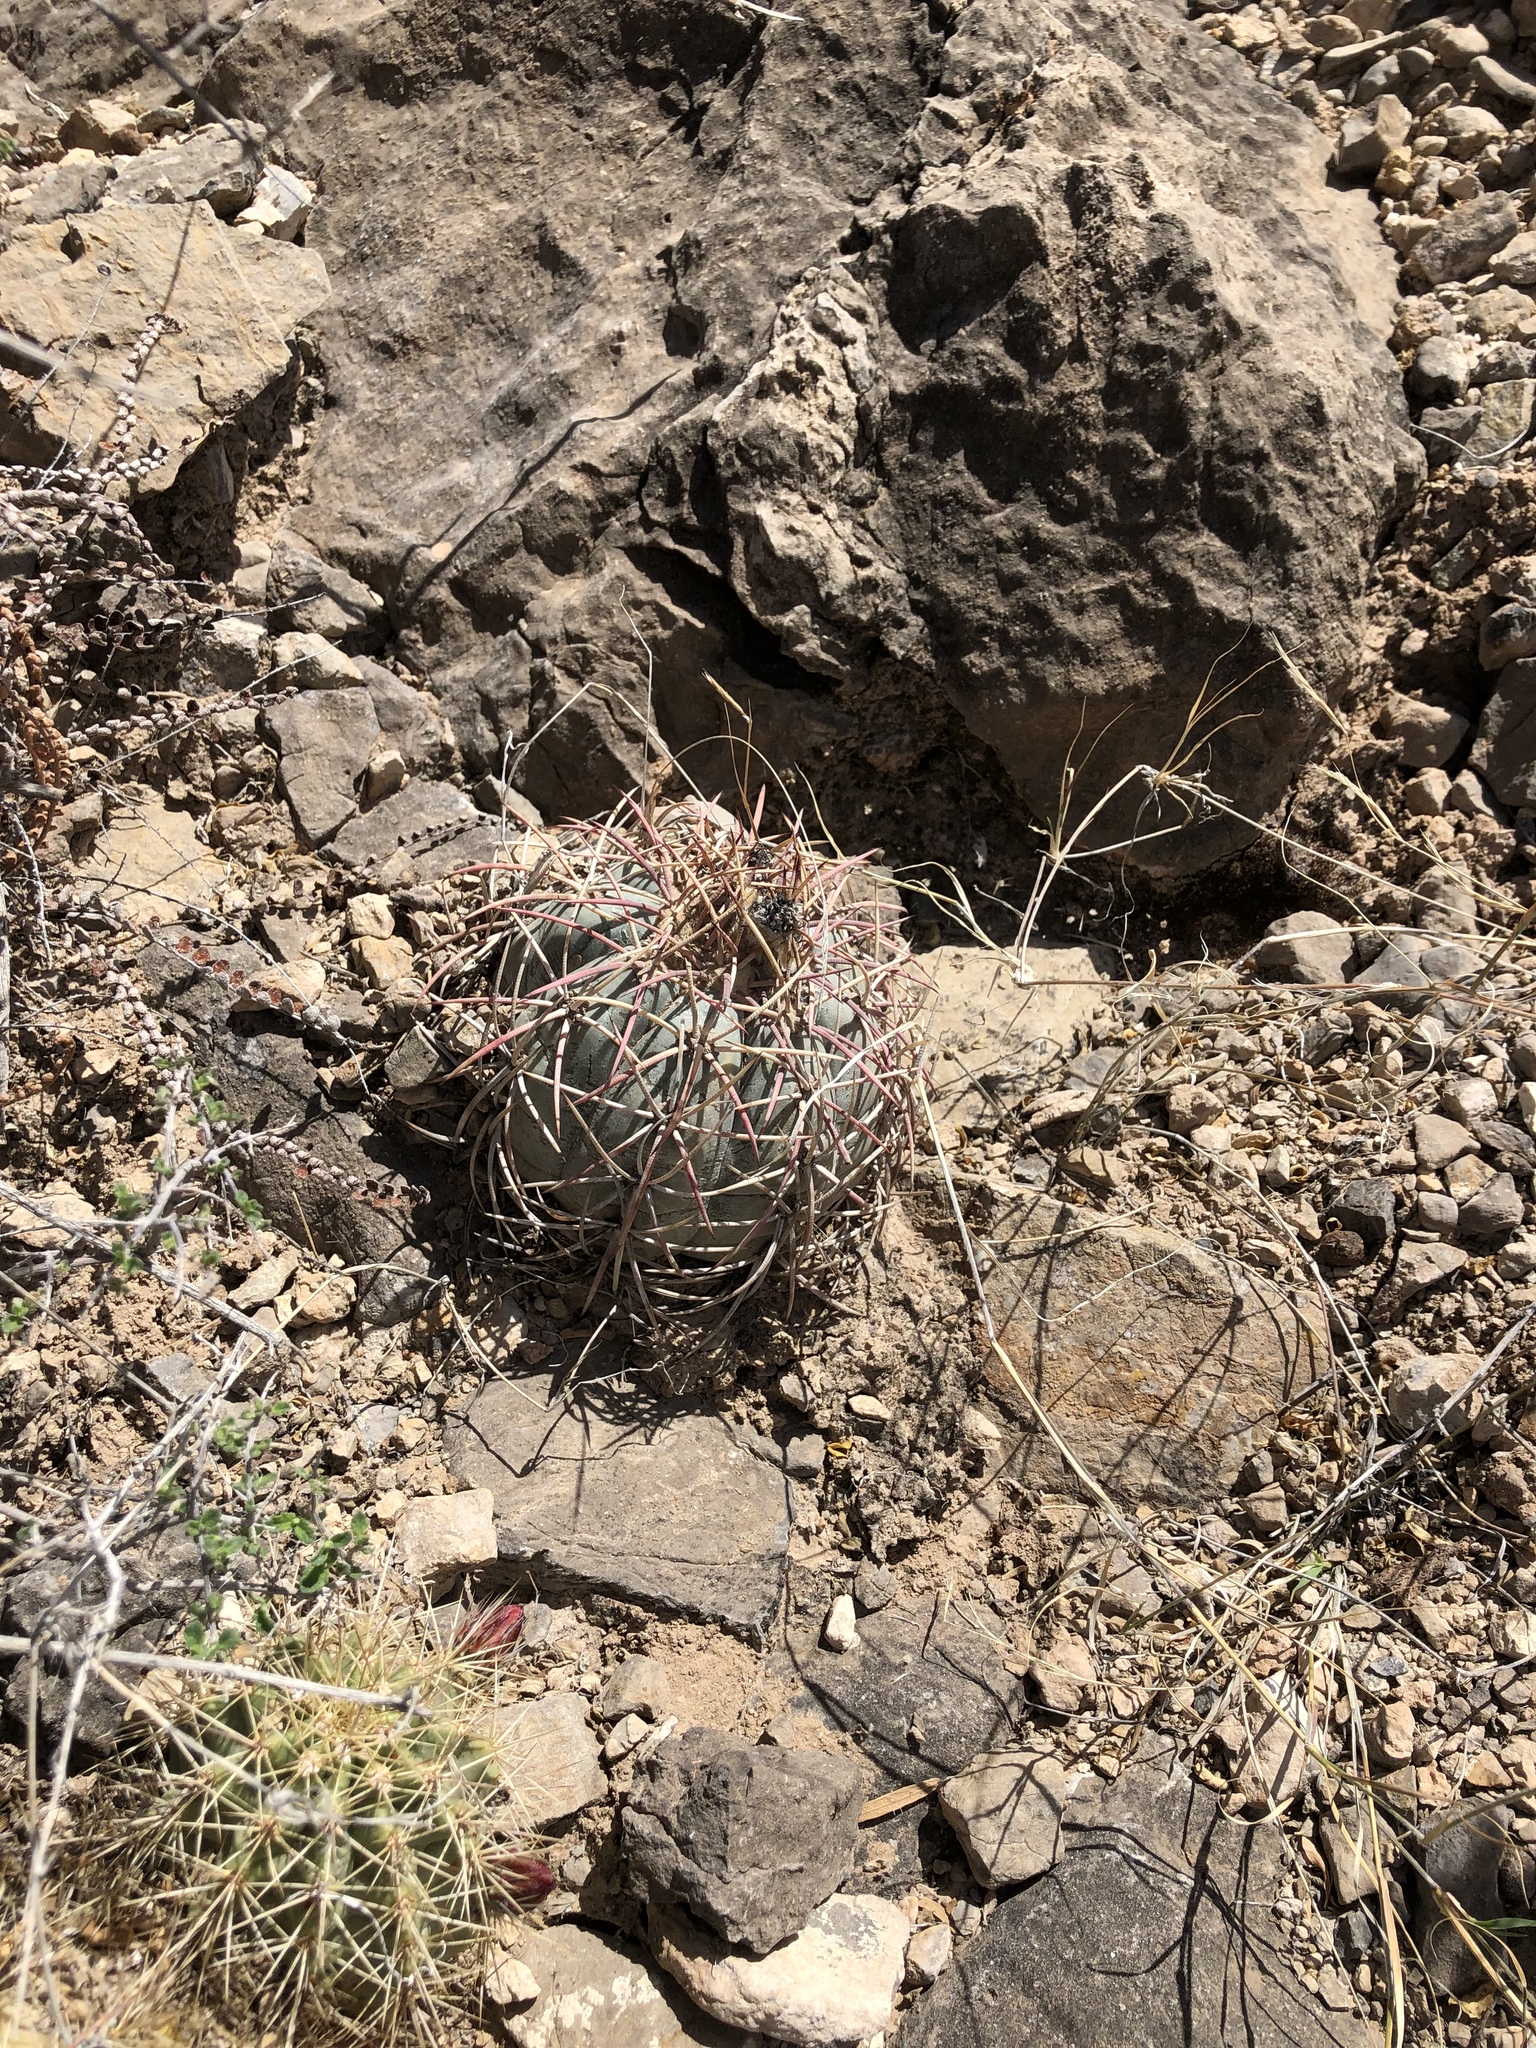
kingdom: Plantae
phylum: Tracheophyta
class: Magnoliopsida
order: Caryophyllales
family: Cactaceae
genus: Echinocactus
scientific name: Echinocactus horizonthalonius
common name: Devilshead
